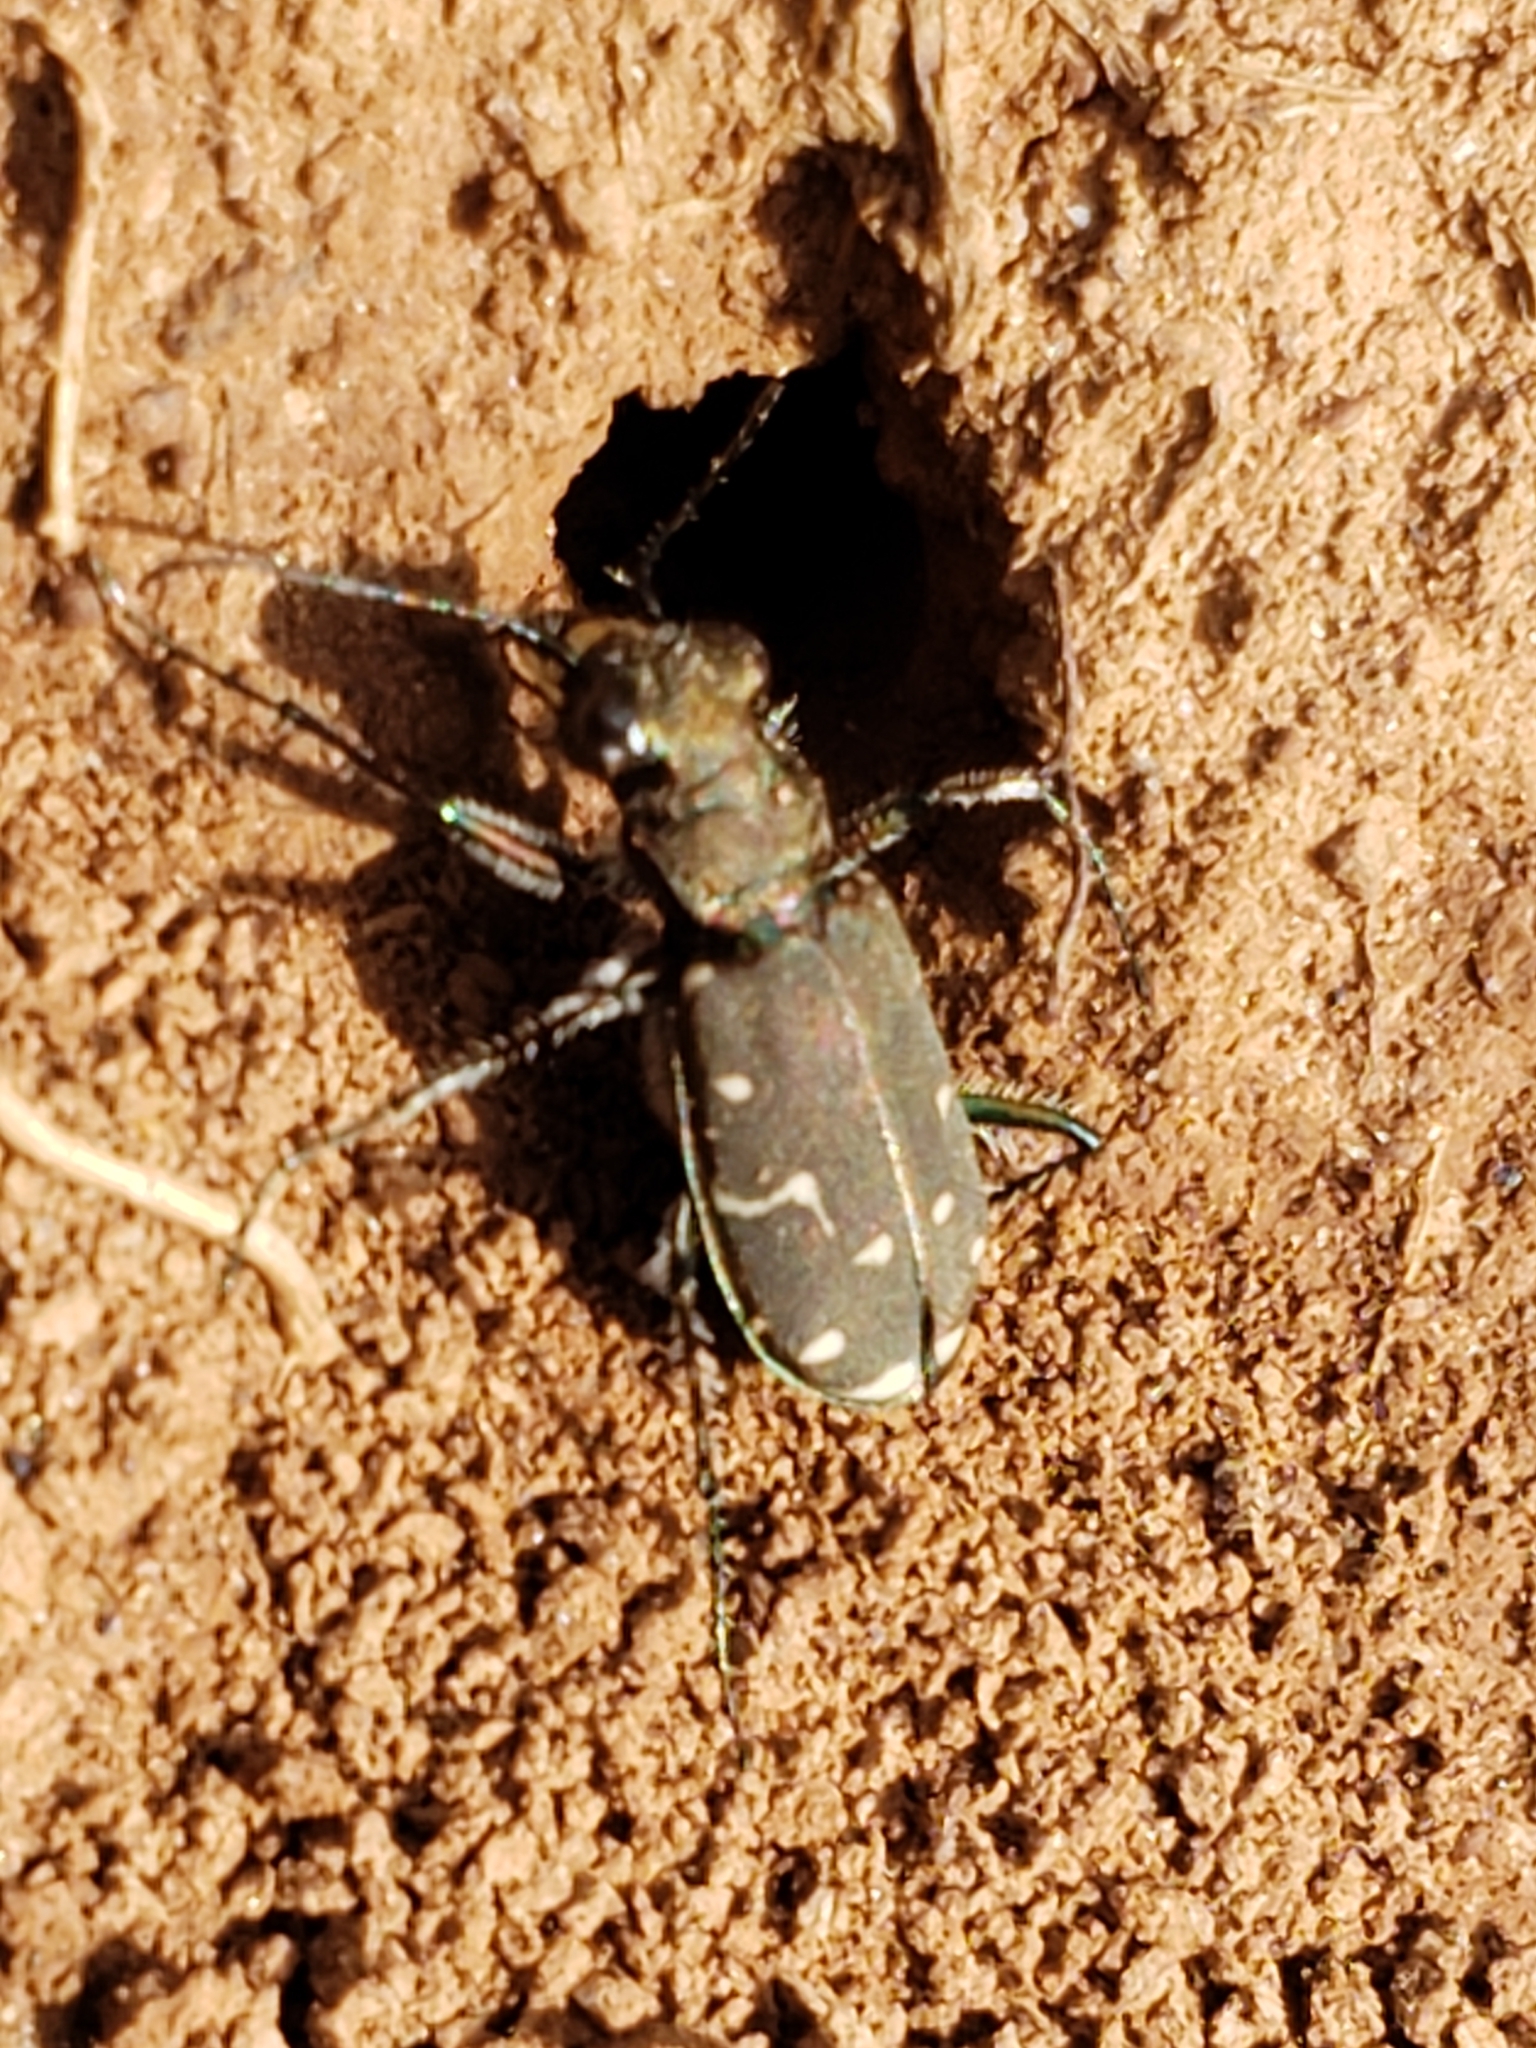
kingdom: Animalia
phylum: Arthropoda
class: Insecta
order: Coleoptera
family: Carabidae
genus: Cicindela
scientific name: Cicindela duodecimguttata
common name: Twelve-spotted tiger beetle
